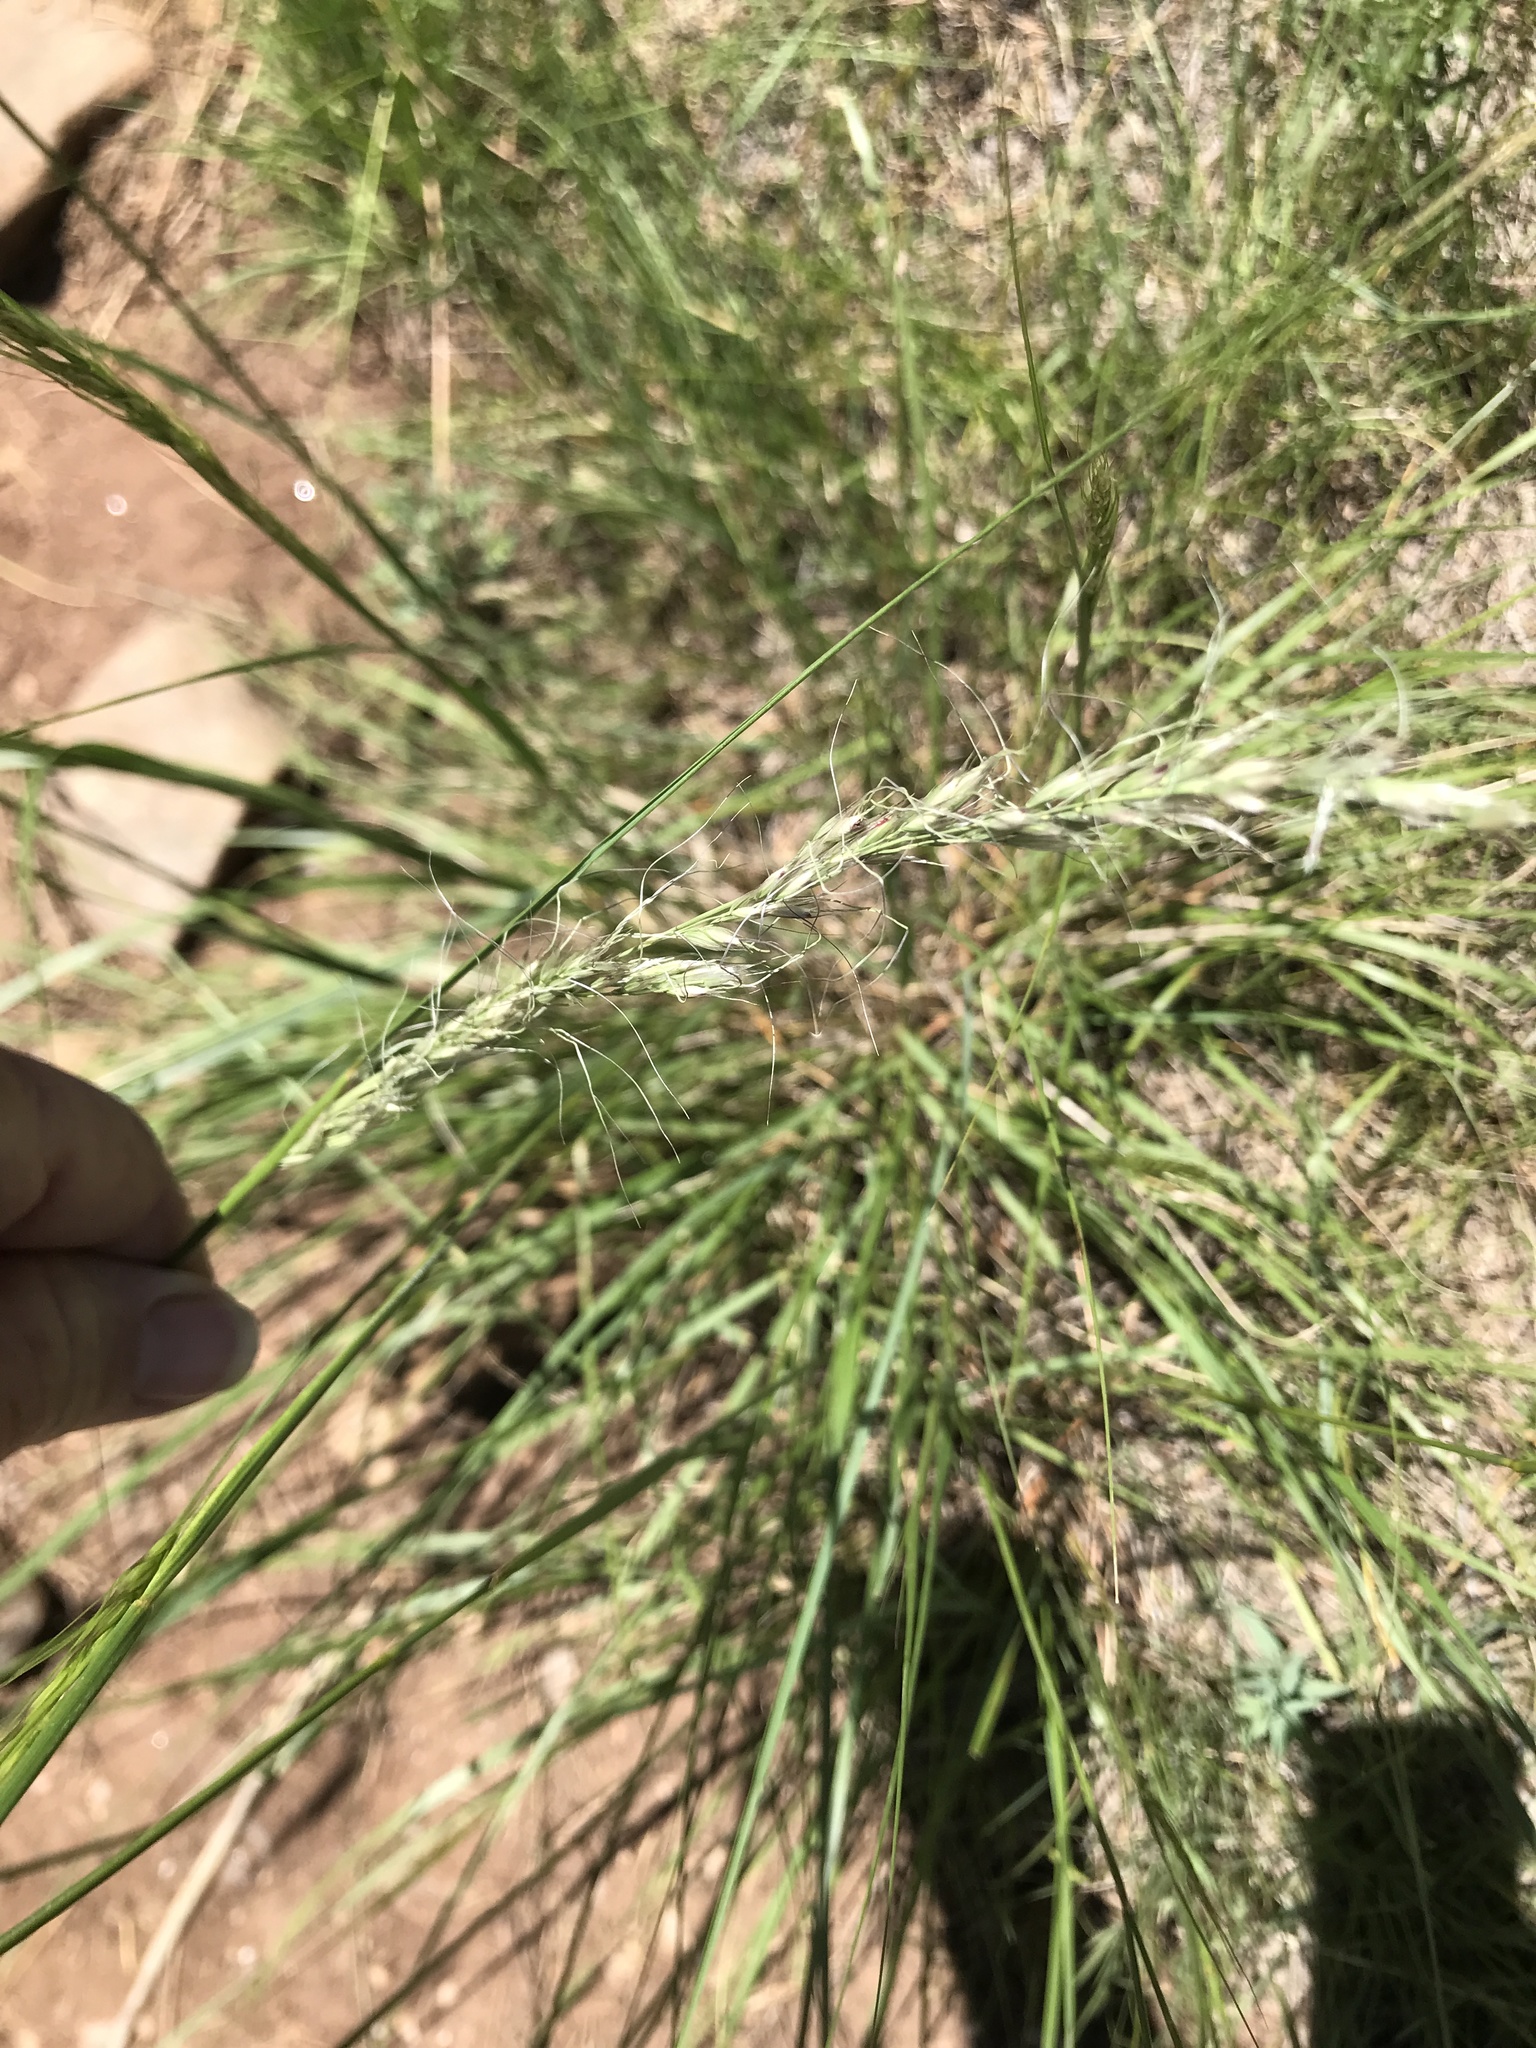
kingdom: Plantae
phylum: Tracheophyta
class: Liliopsida
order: Poales
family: Poaceae
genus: Nassella
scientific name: Nassella viridula
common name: Green needlegrass
